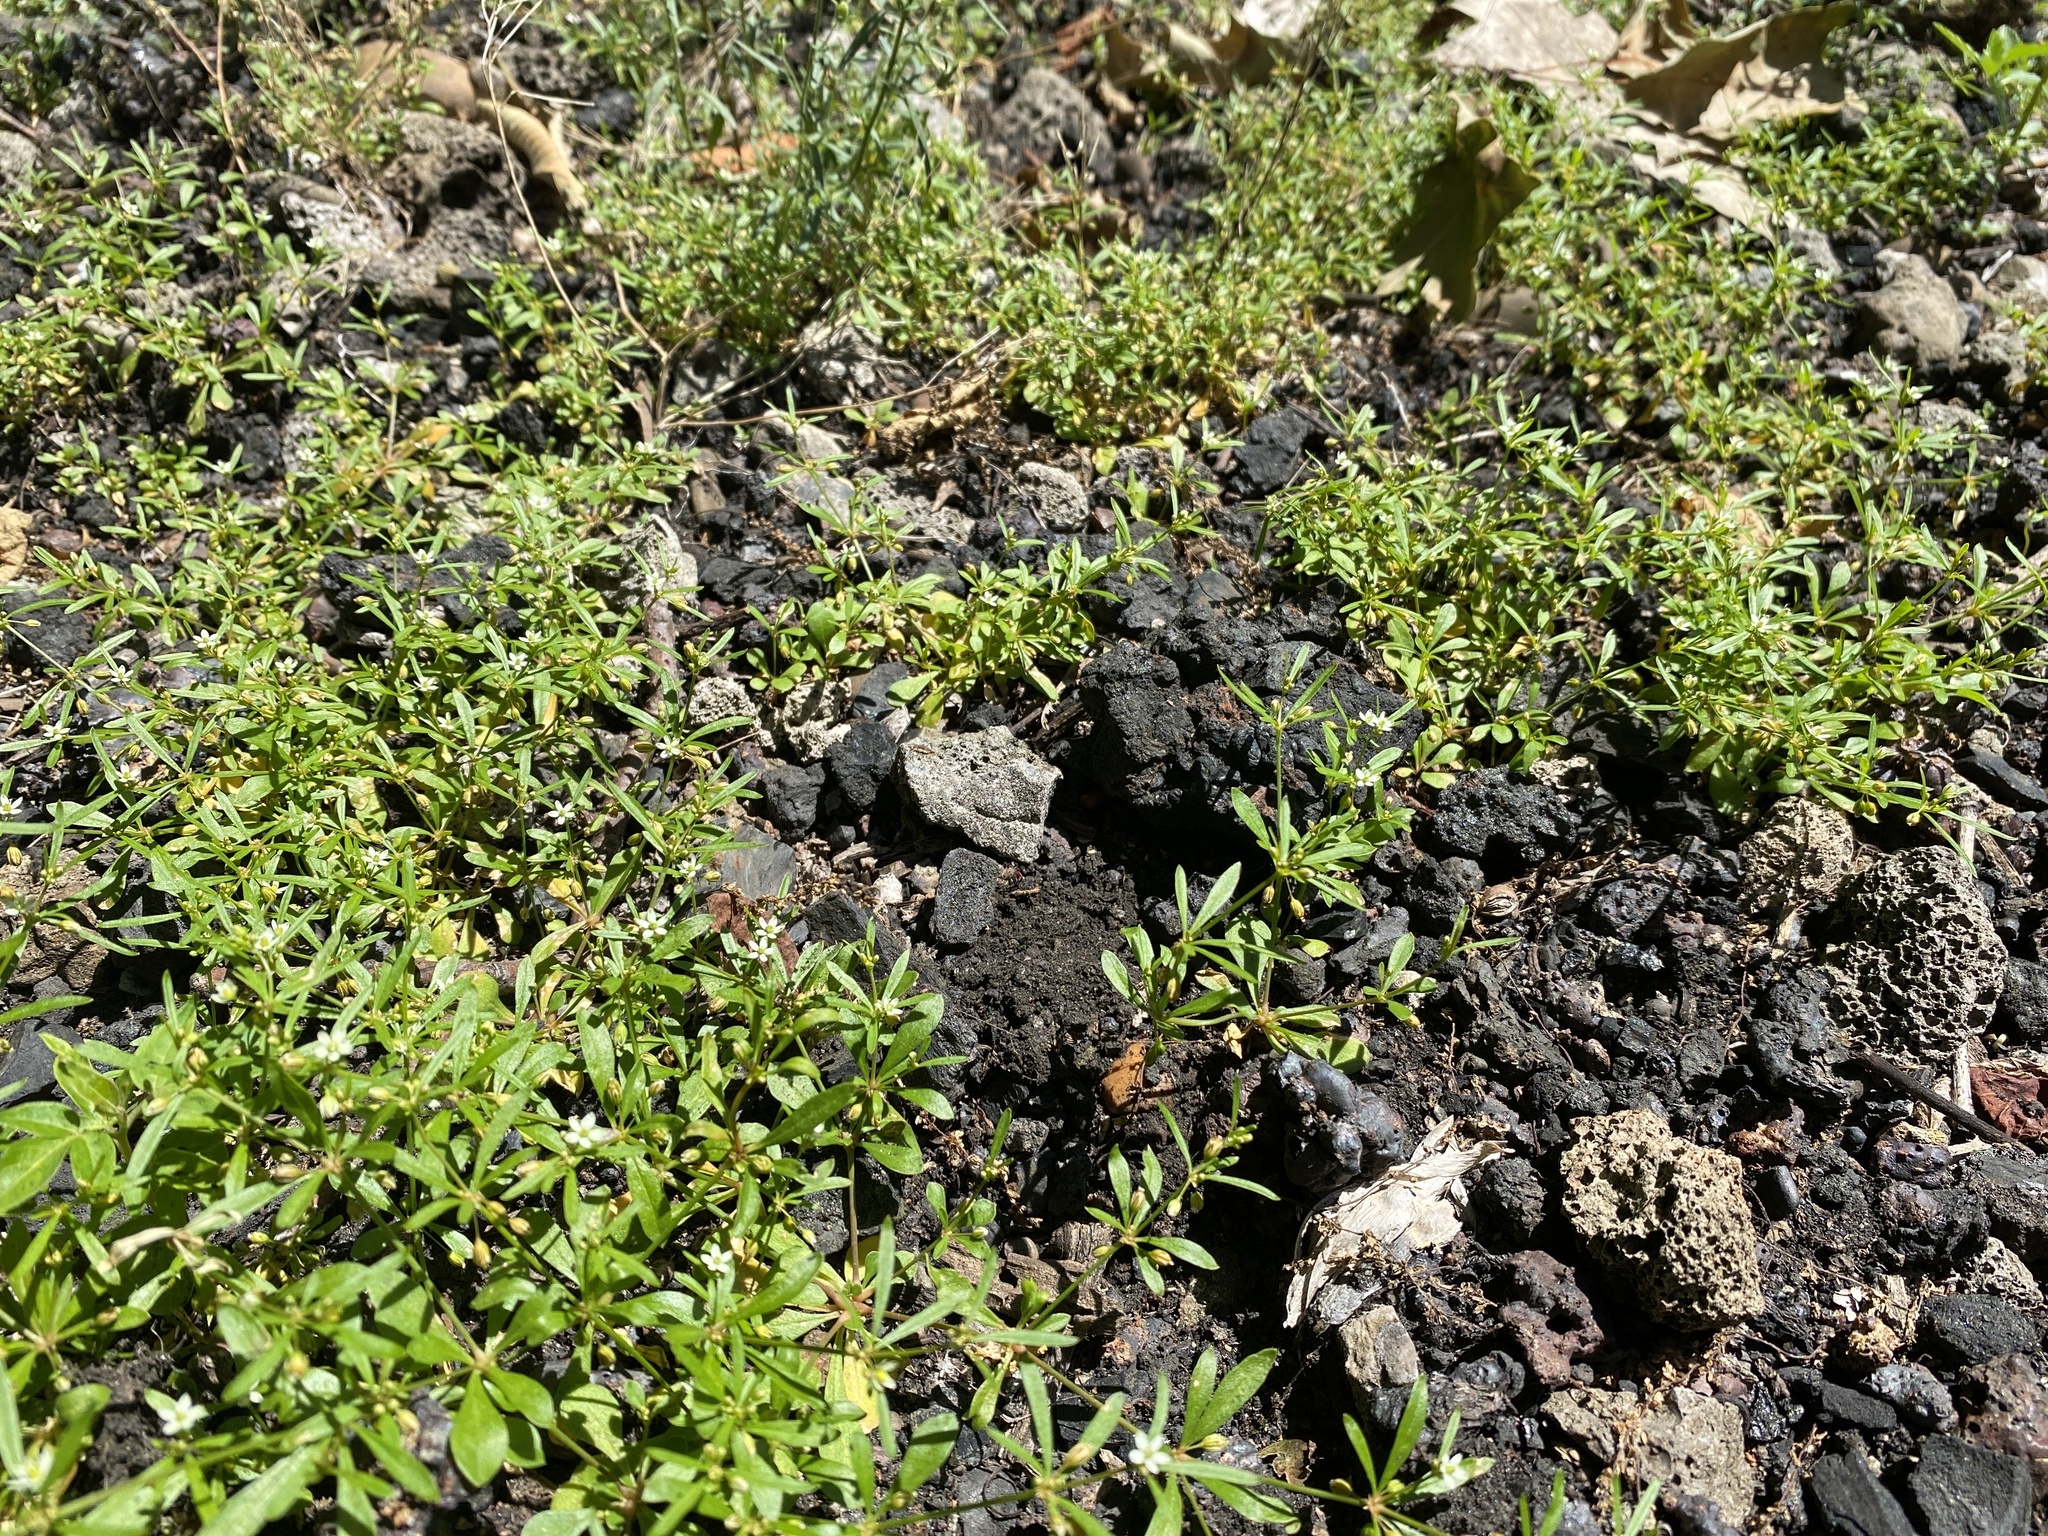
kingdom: Plantae
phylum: Tracheophyta
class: Magnoliopsida
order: Caryophyllales
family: Molluginaceae
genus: Mollugo
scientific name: Mollugo verticillata
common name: Green carpetweed
